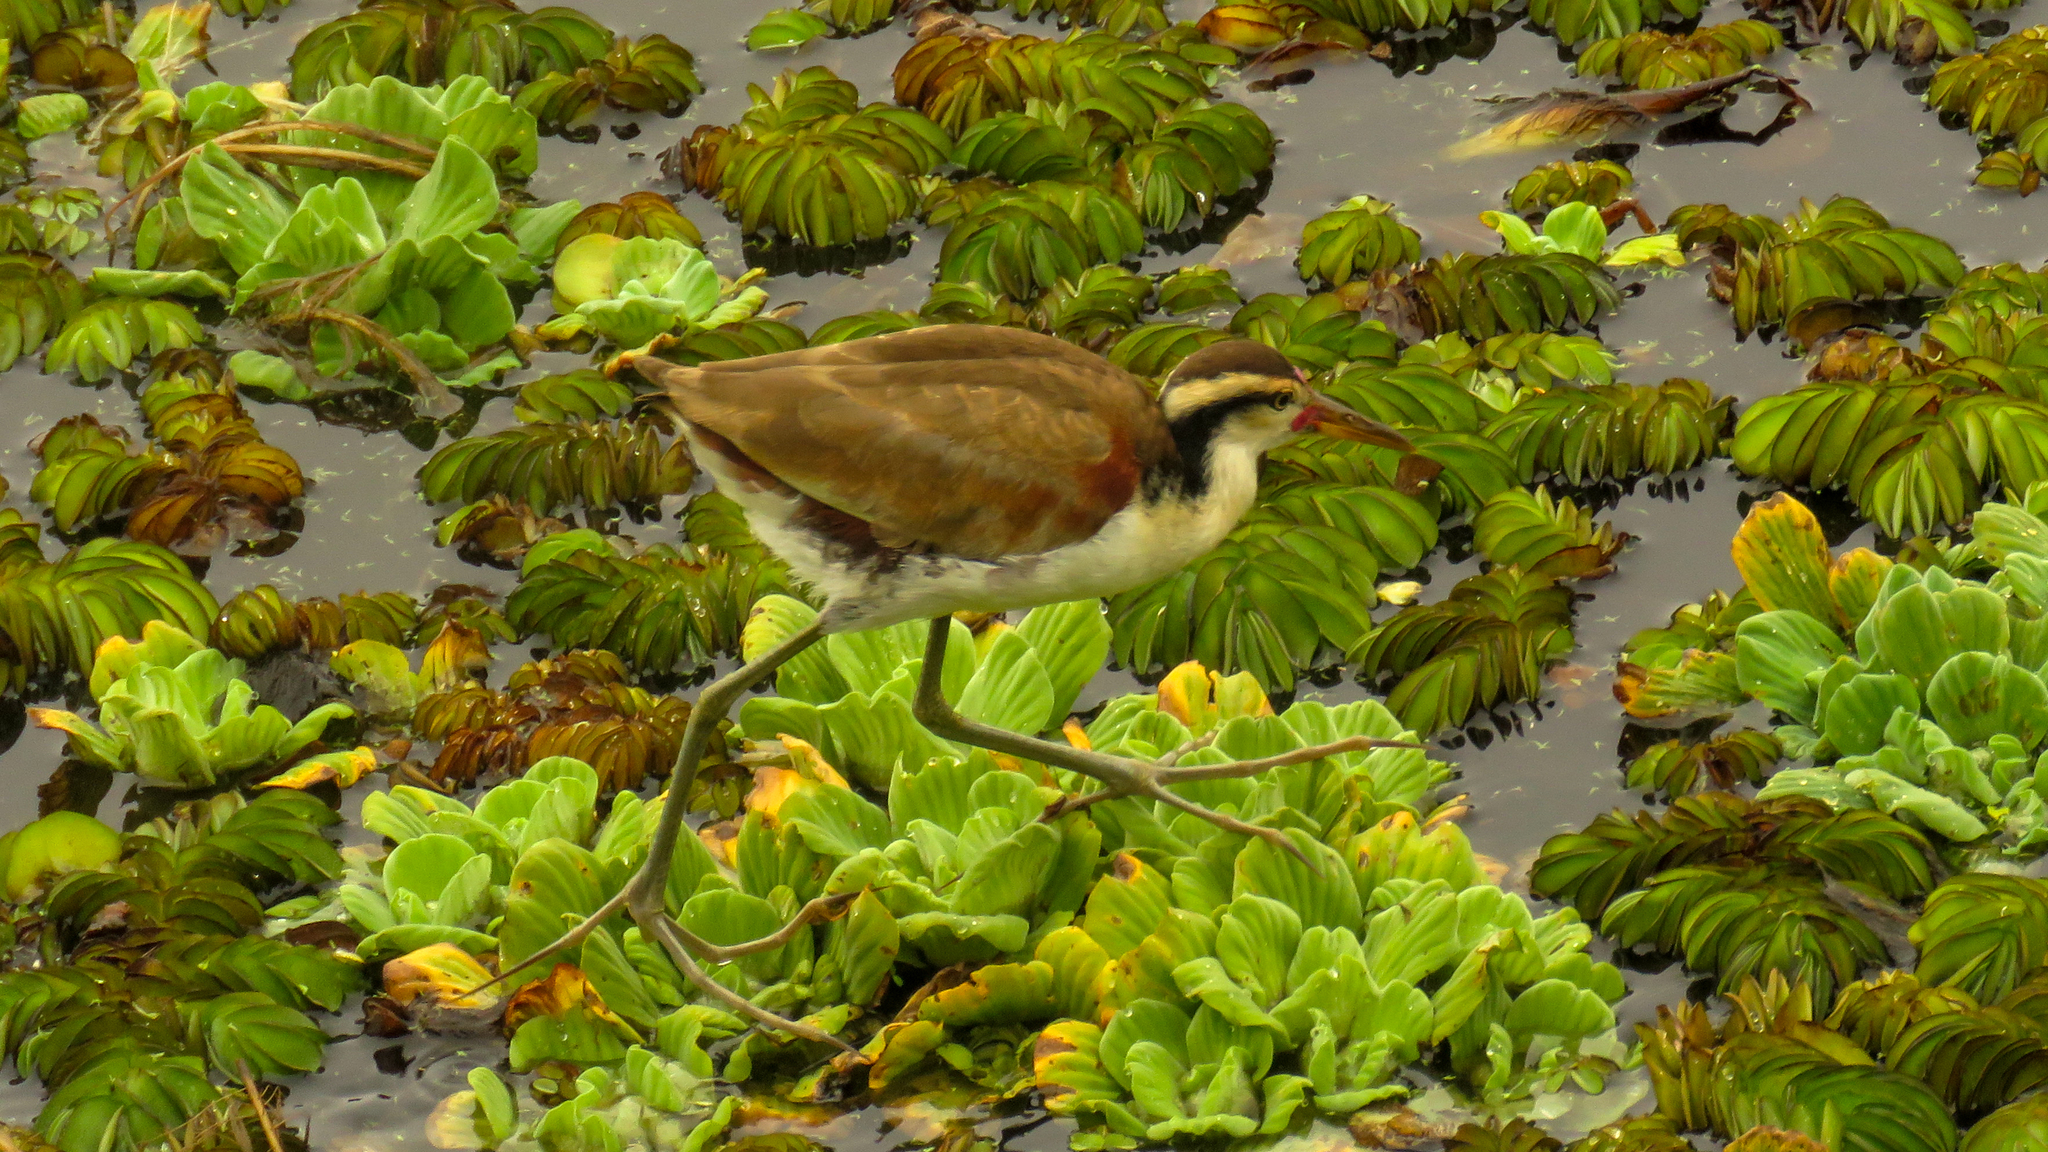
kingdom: Animalia
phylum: Chordata
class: Aves
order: Charadriiformes
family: Jacanidae
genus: Jacana
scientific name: Jacana jacana
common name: Wattled jacana
